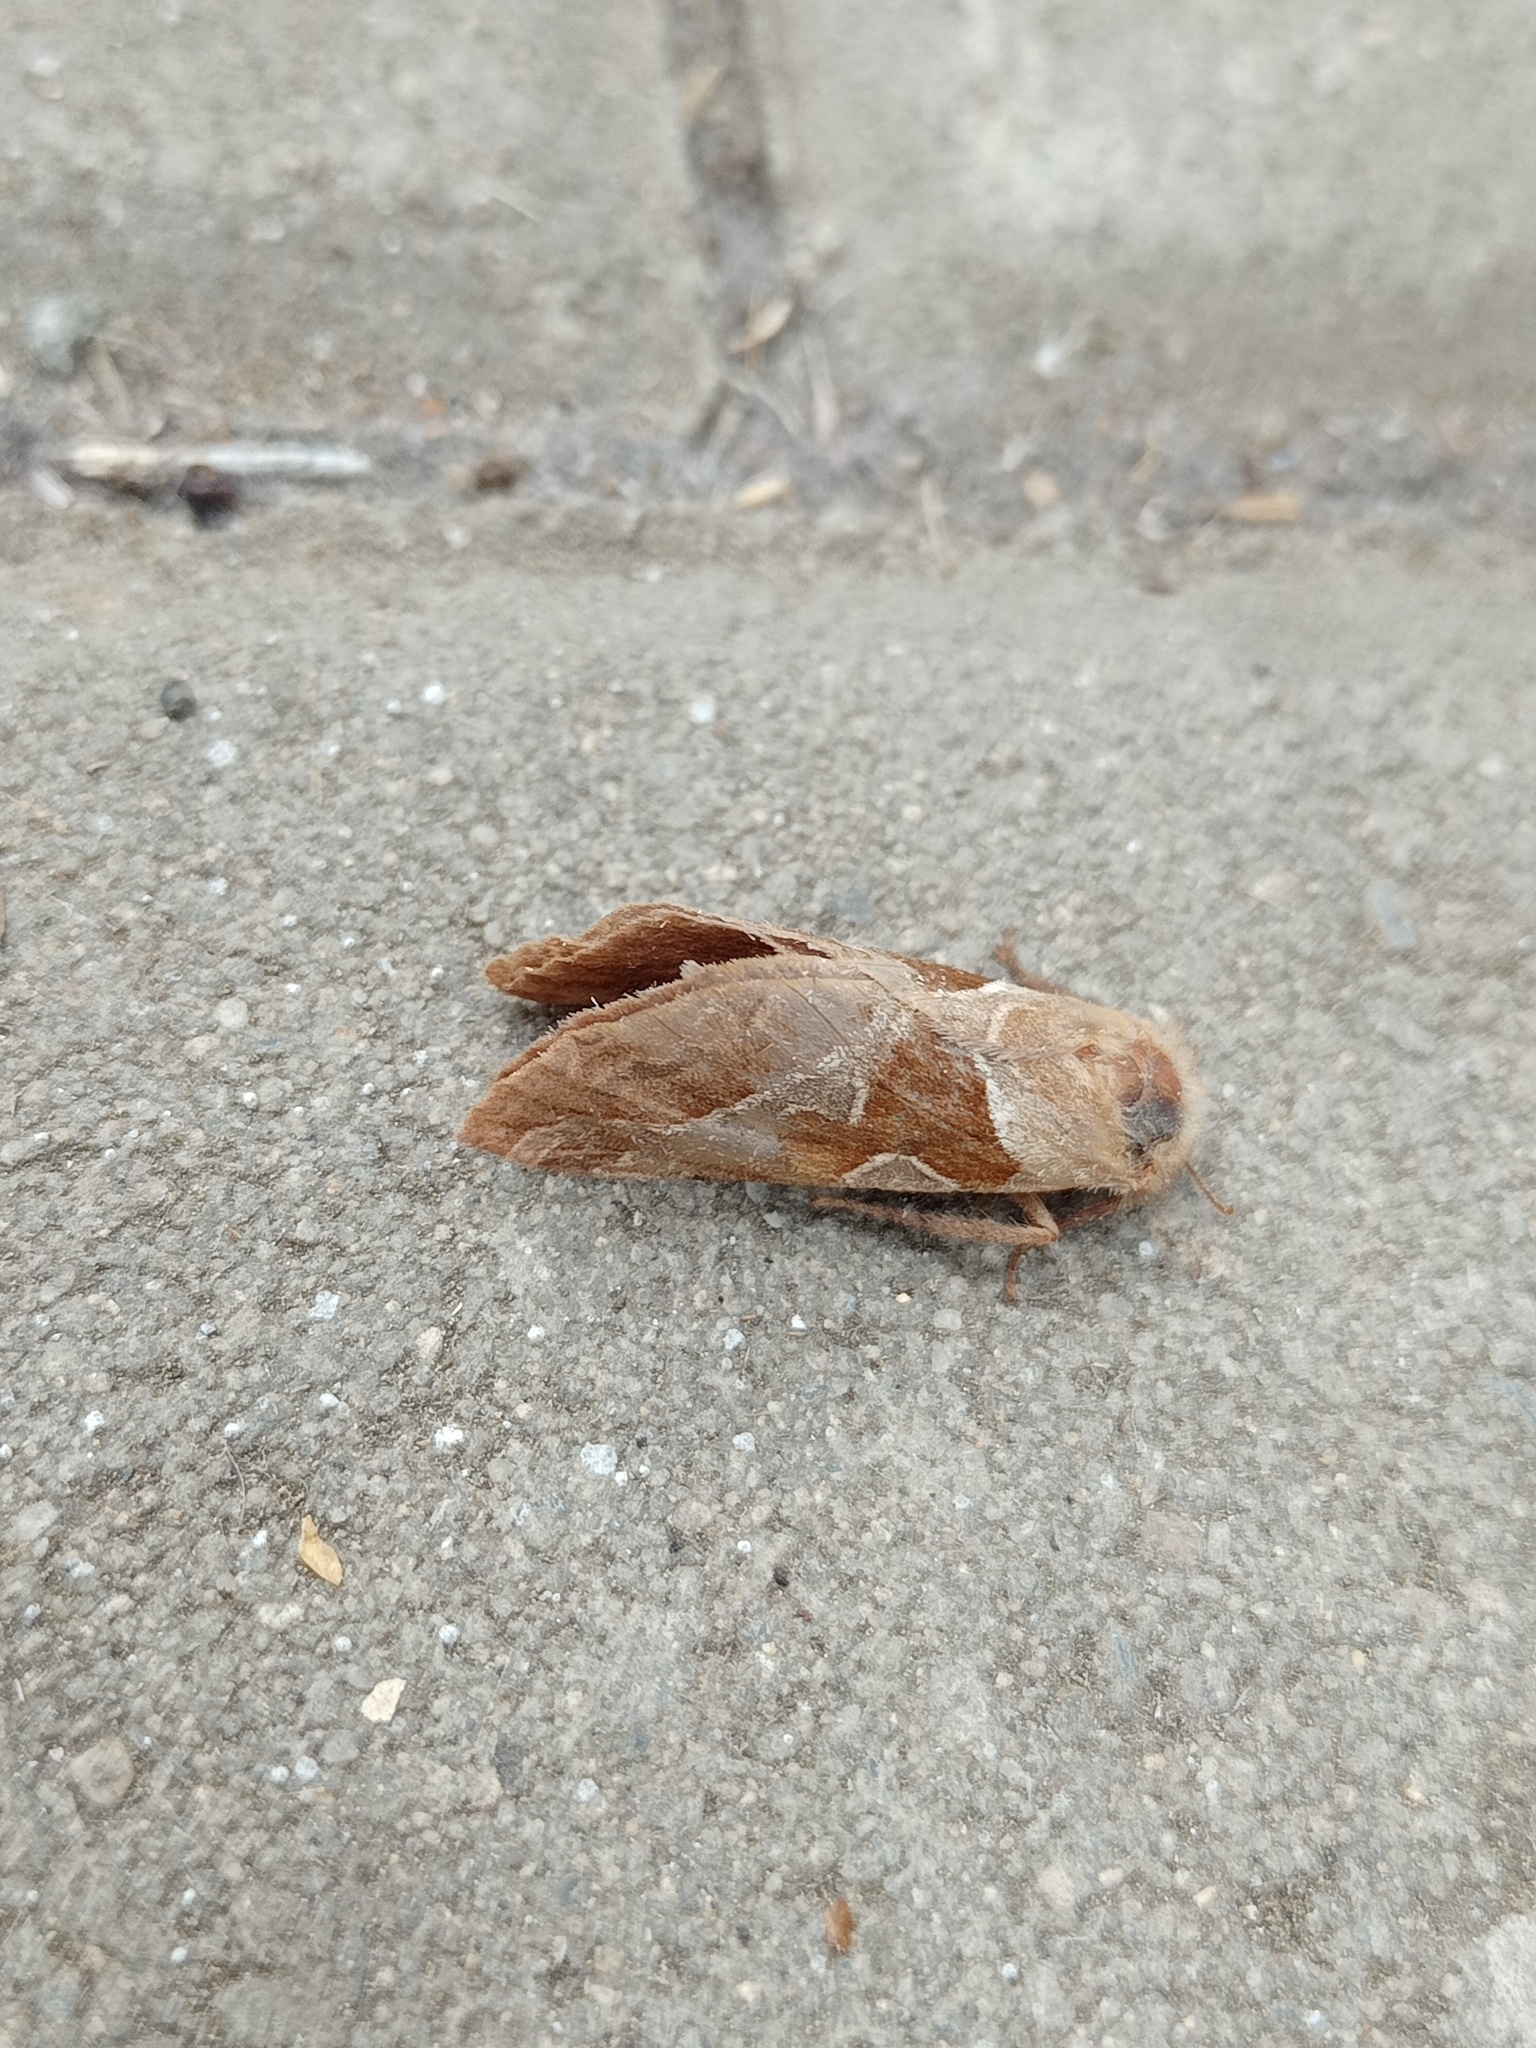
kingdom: Animalia
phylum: Arthropoda
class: Insecta
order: Lepidoptera
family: Hepialidae
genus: Triodia
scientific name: Triodia sylvina
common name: Orange swift
